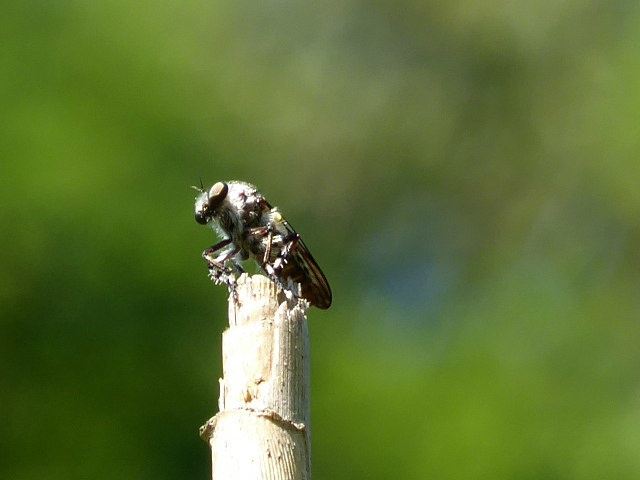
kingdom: Animalia
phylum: Arthropoda
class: Insecta
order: Diptera
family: Asilidae
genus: Heteropogon
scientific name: Heteropogon macerinus
